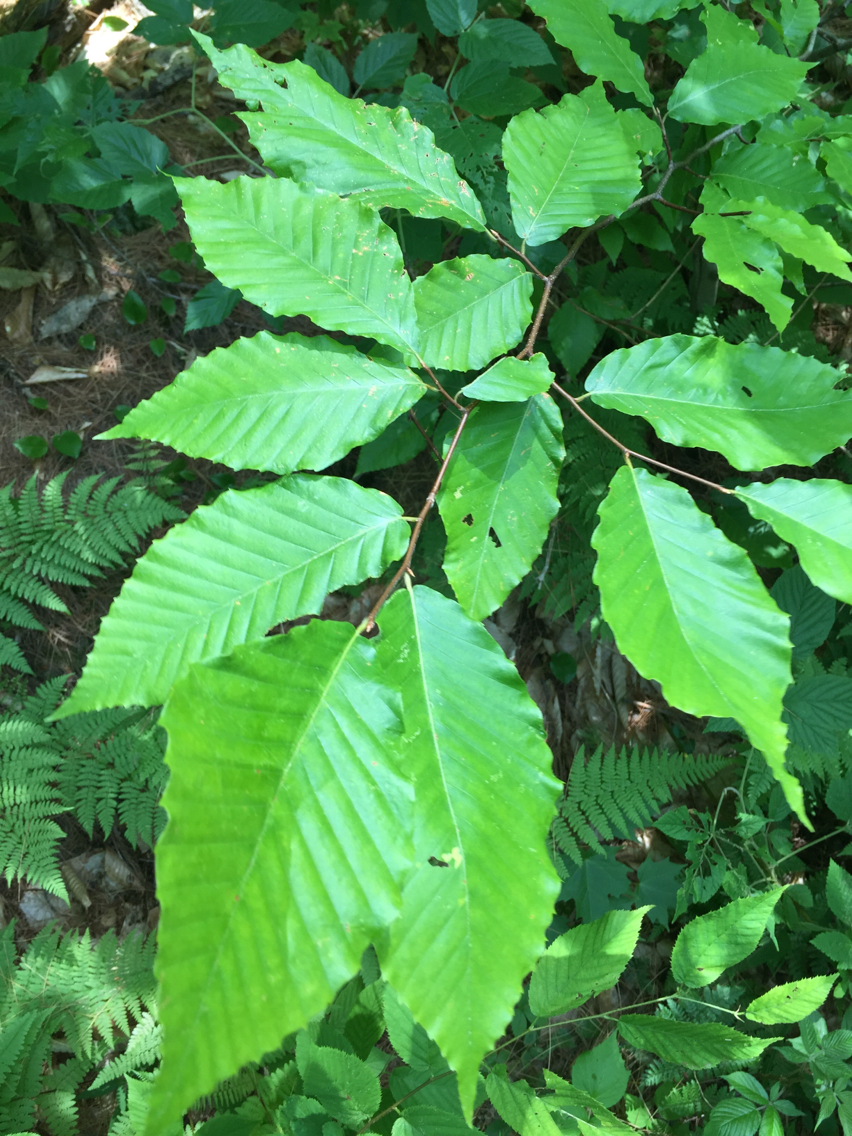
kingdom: Plantae
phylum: Tracheophyta
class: Magnoliopsida
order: Fagales
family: Fagaceae
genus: Fagus
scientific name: Fagus grandifolia
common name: American beech
